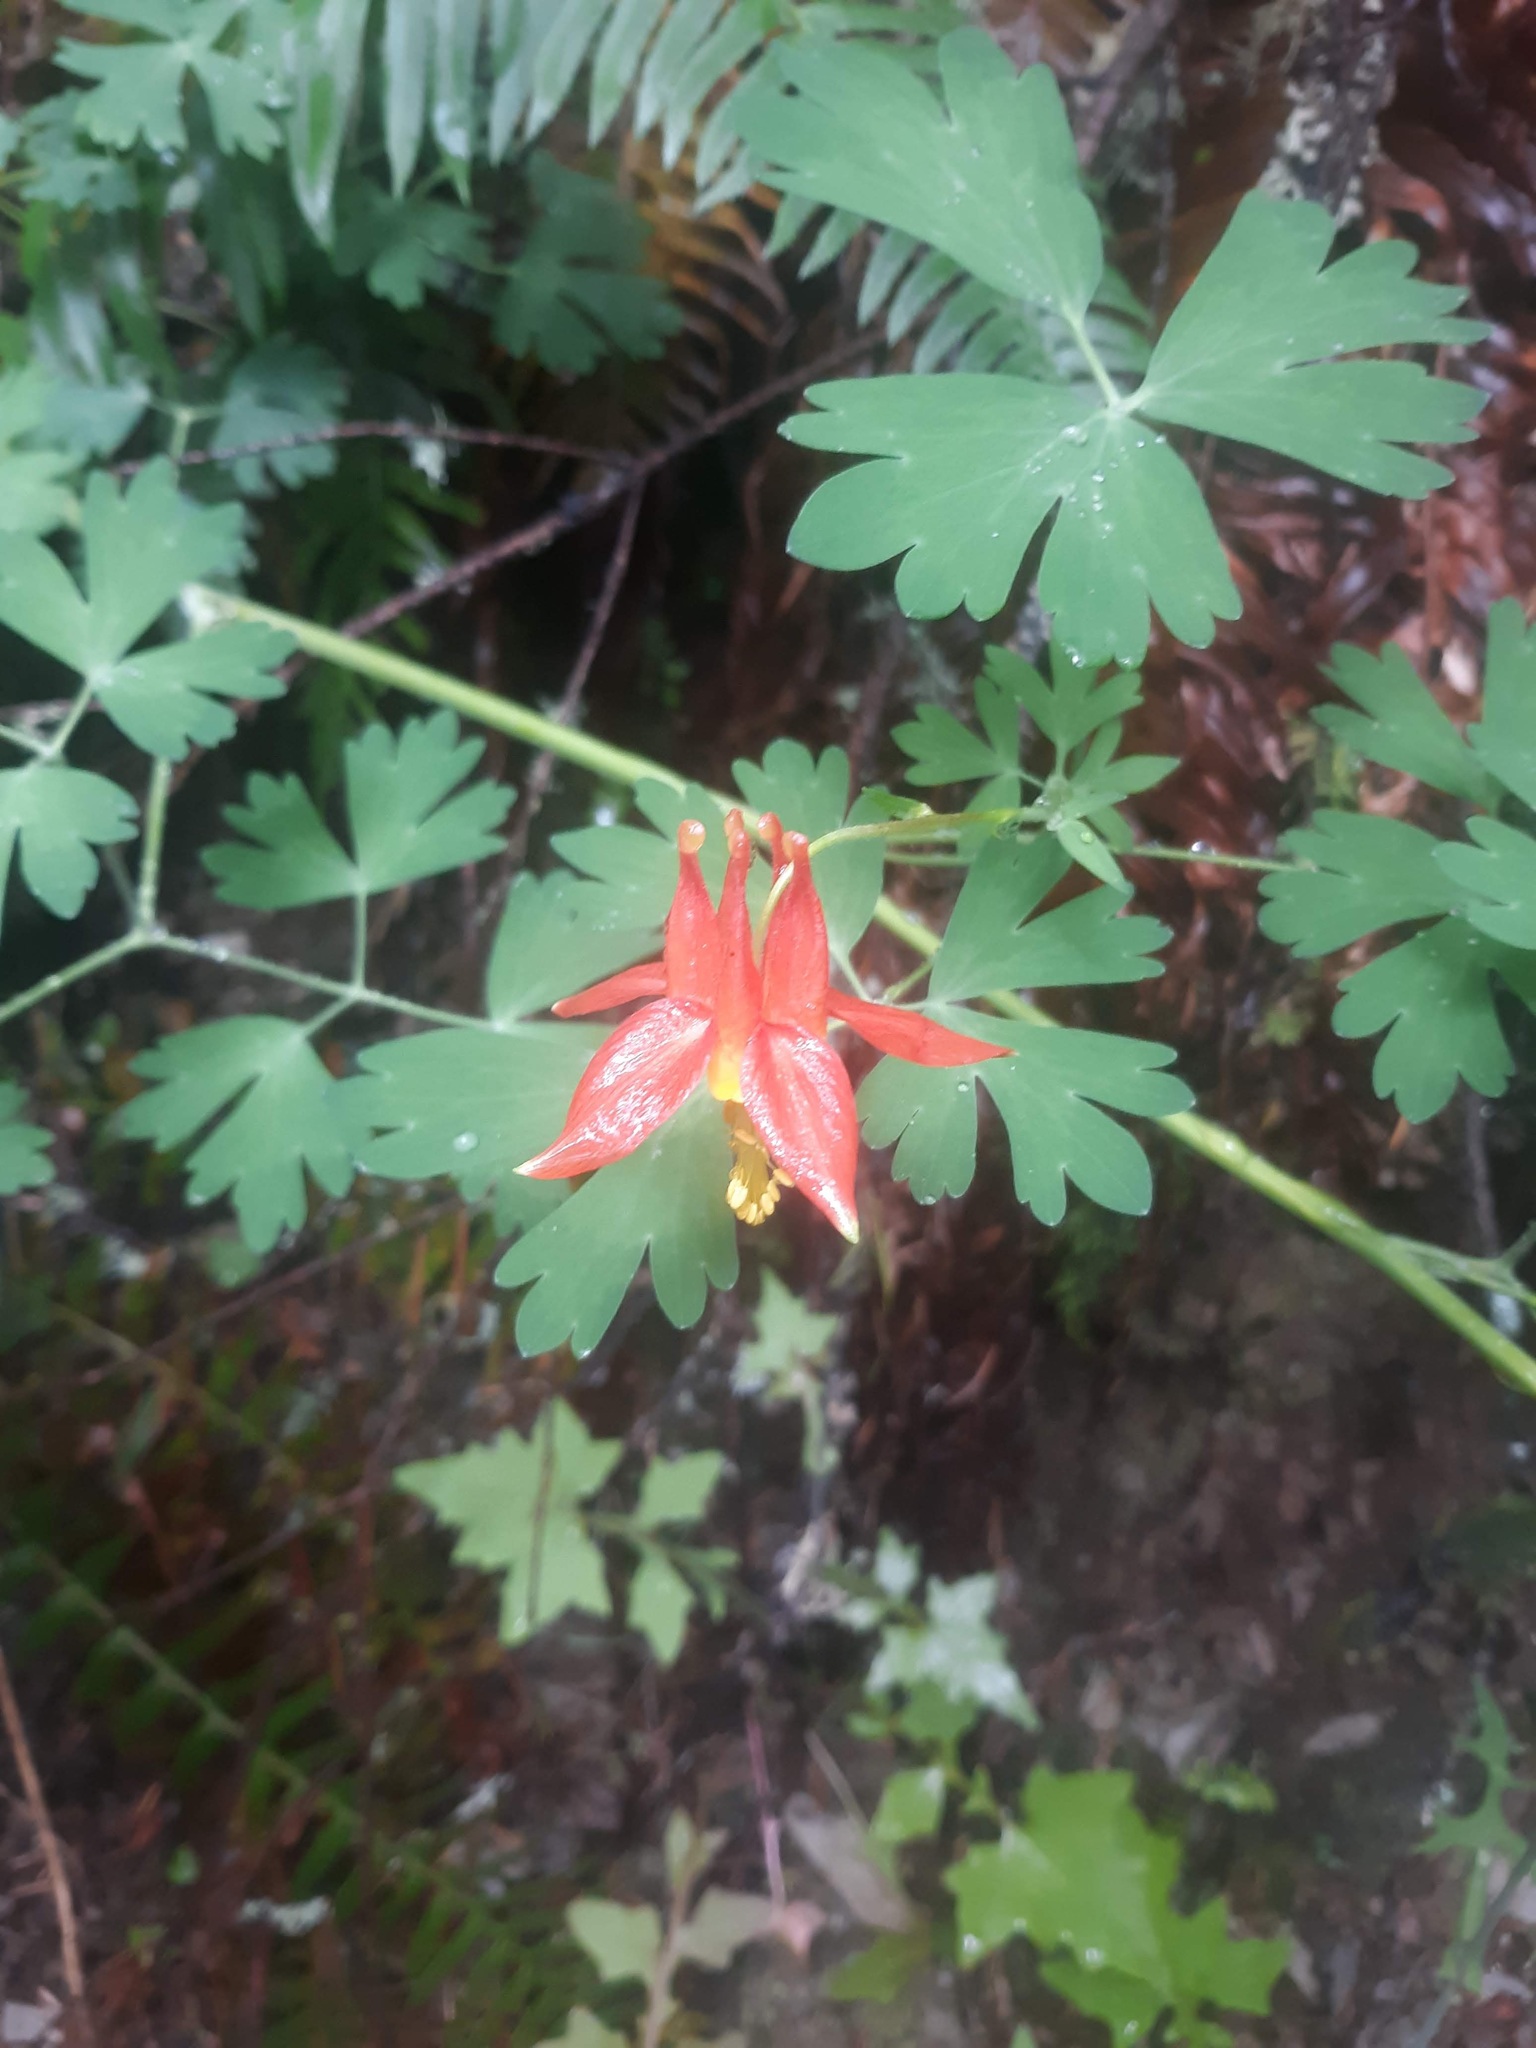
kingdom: Plantae
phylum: Tracheophyta
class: Magnoliopsida
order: Ranunculales
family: Ranunculaceae
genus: Aquilegia
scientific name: Aquilegia formosa
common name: Sitka columbine
